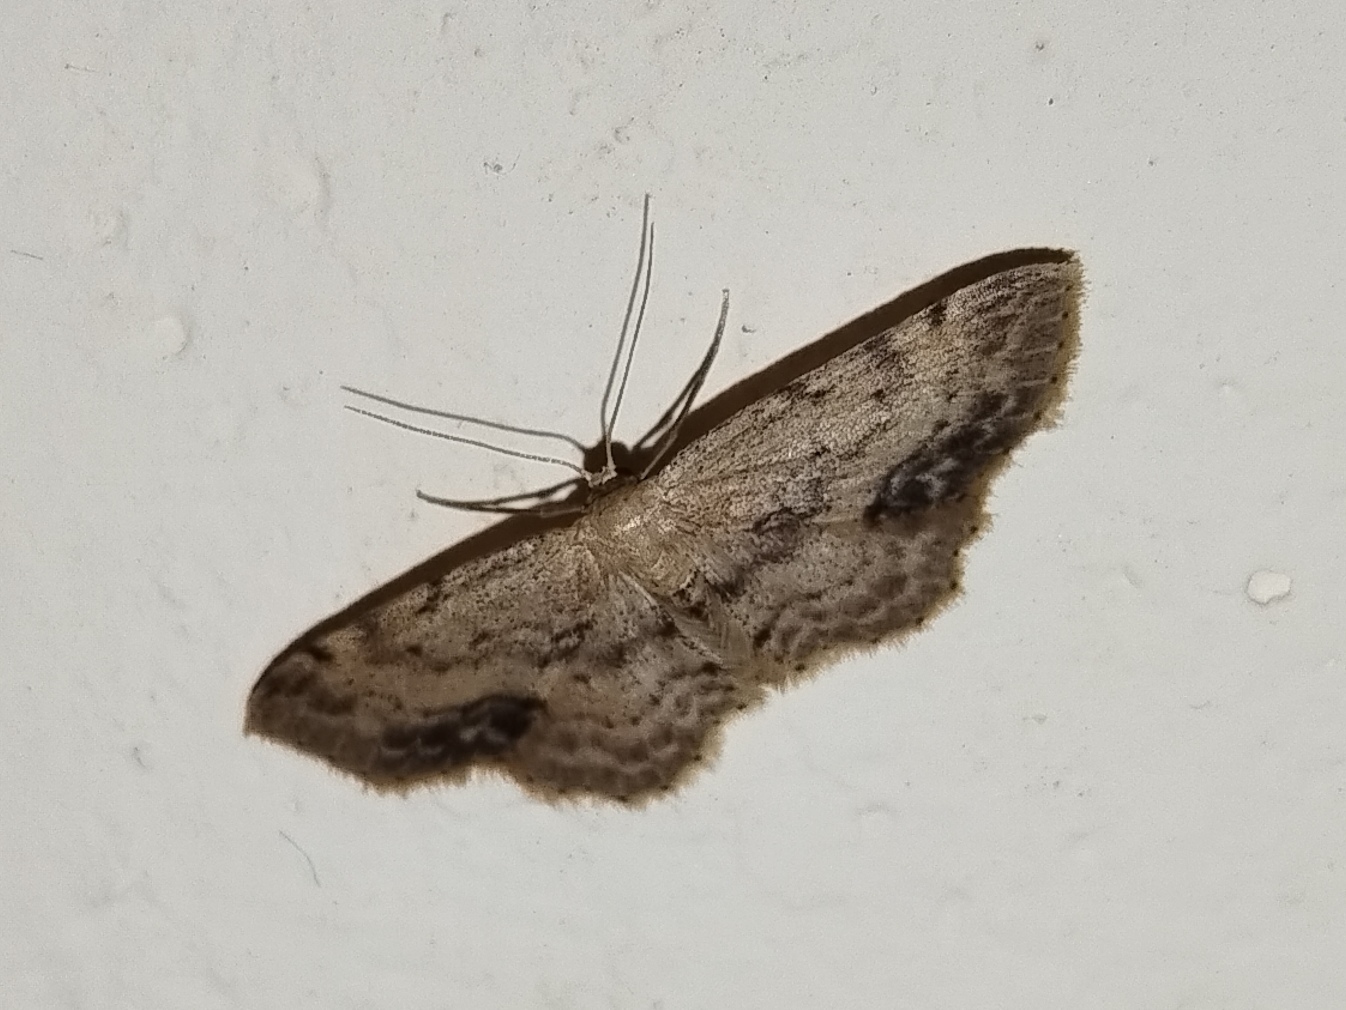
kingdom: Animalia
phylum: Arthropoda
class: Insecta
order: Lepidoptera
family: Geometridae
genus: Idaea
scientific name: Idaea dimidiata
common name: Single-dotted wave
